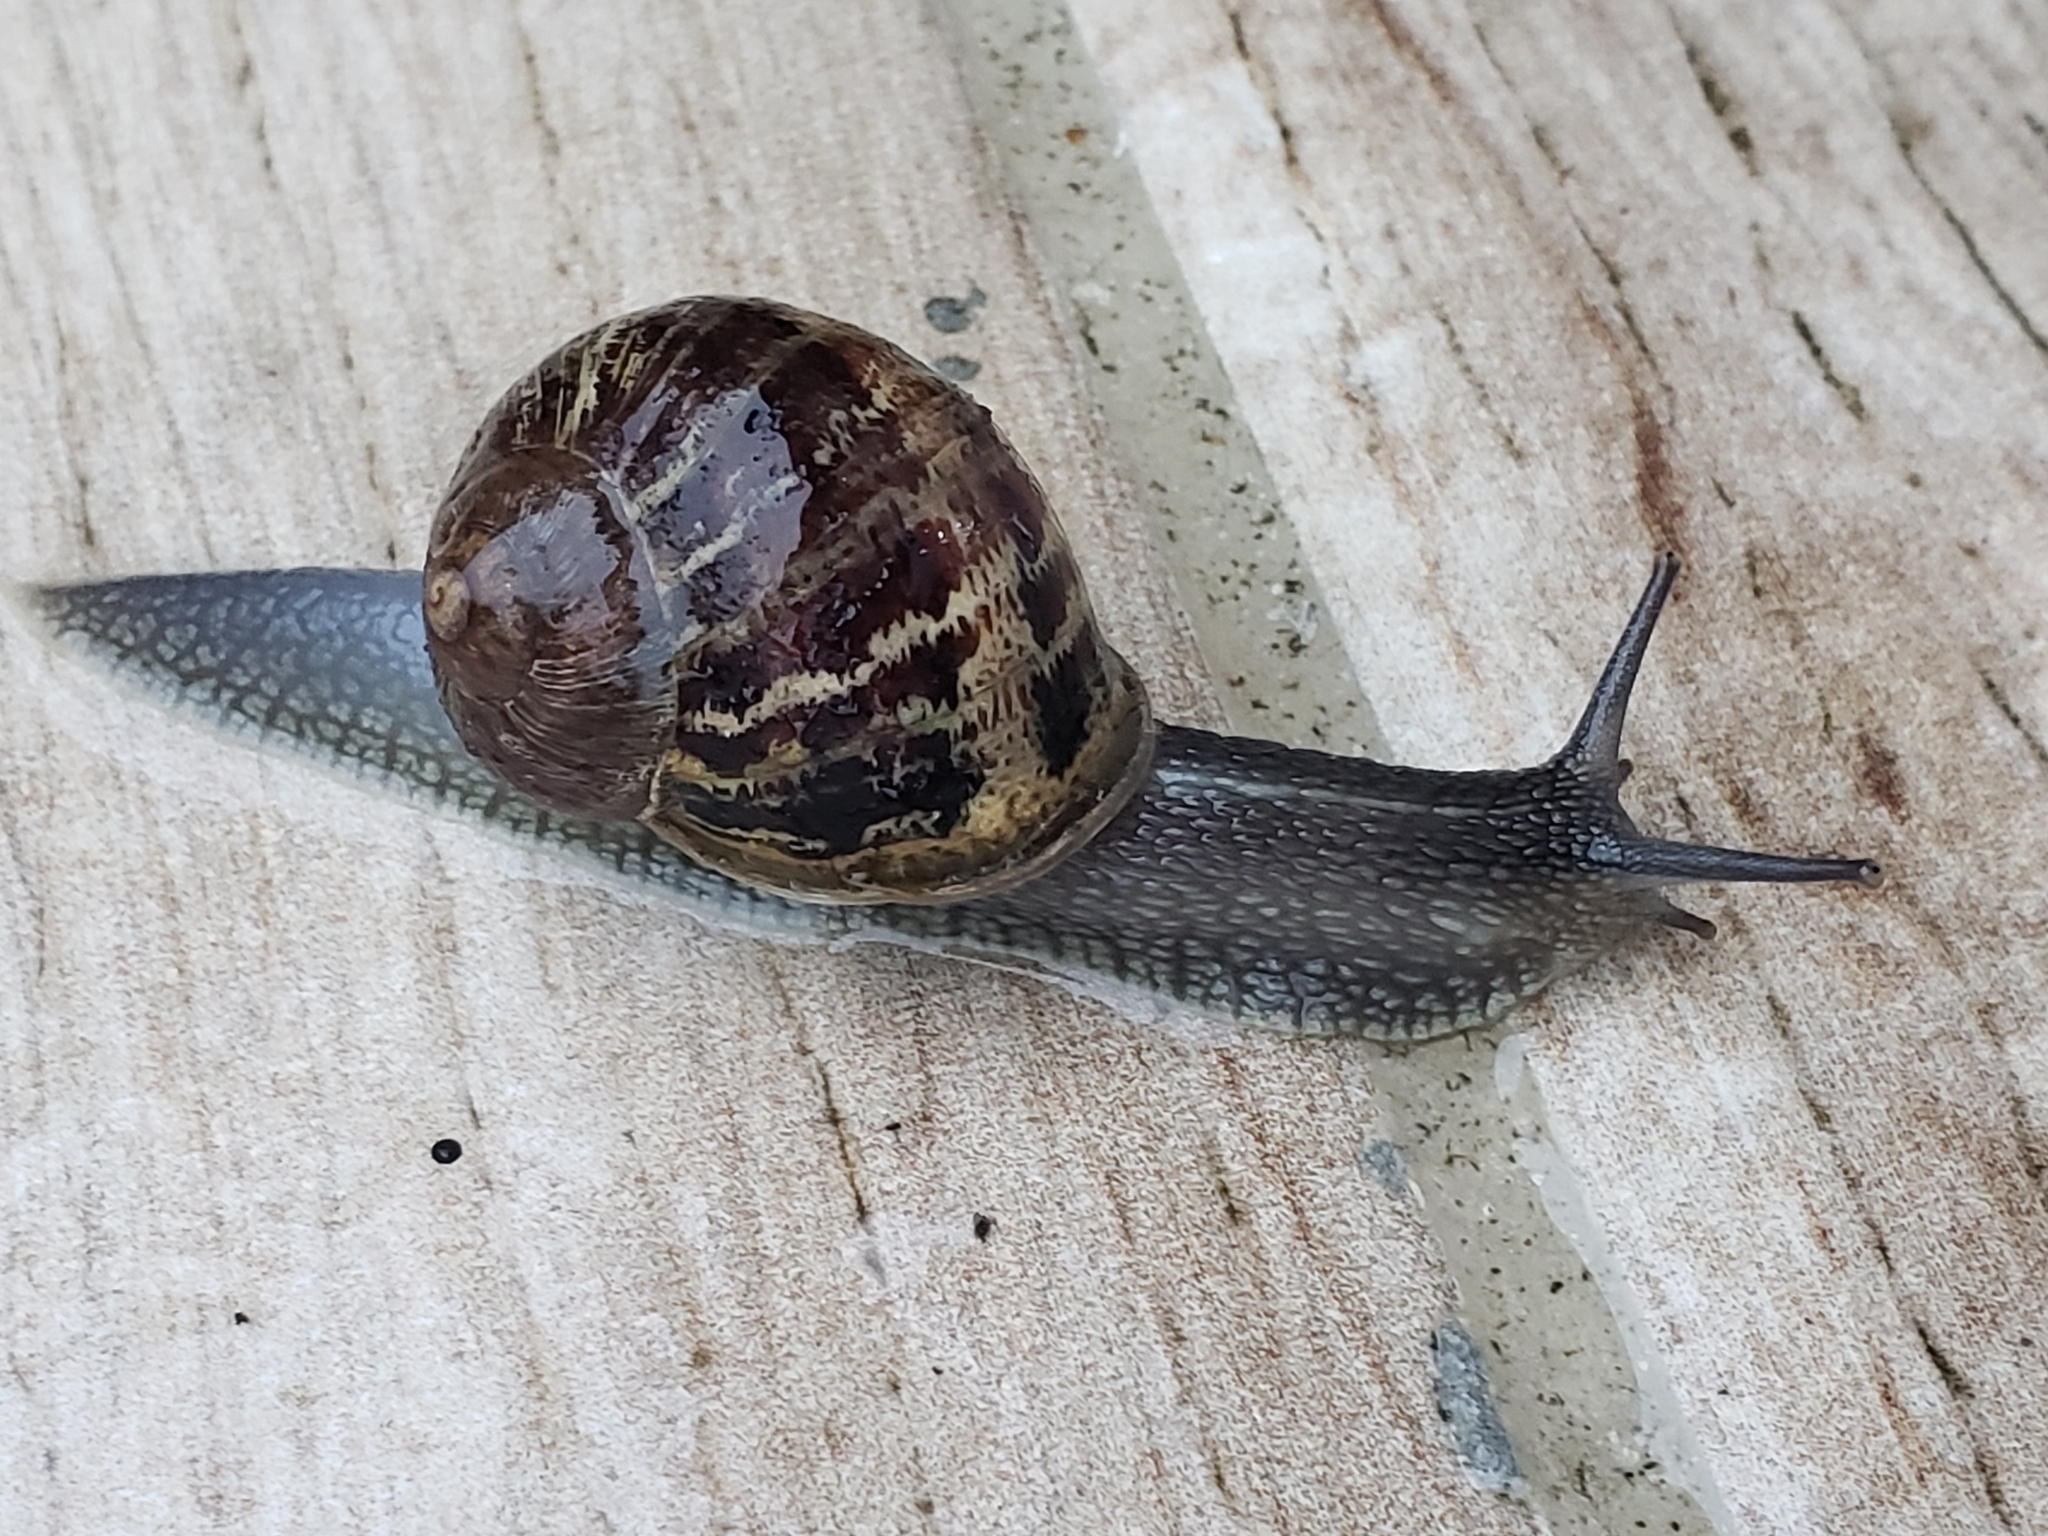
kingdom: Animalia
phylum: Mollusca
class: Gastropoda
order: Stylommatophora
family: Helicidae
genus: Cornu
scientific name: Cornu aspersum
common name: Brown garden snail
